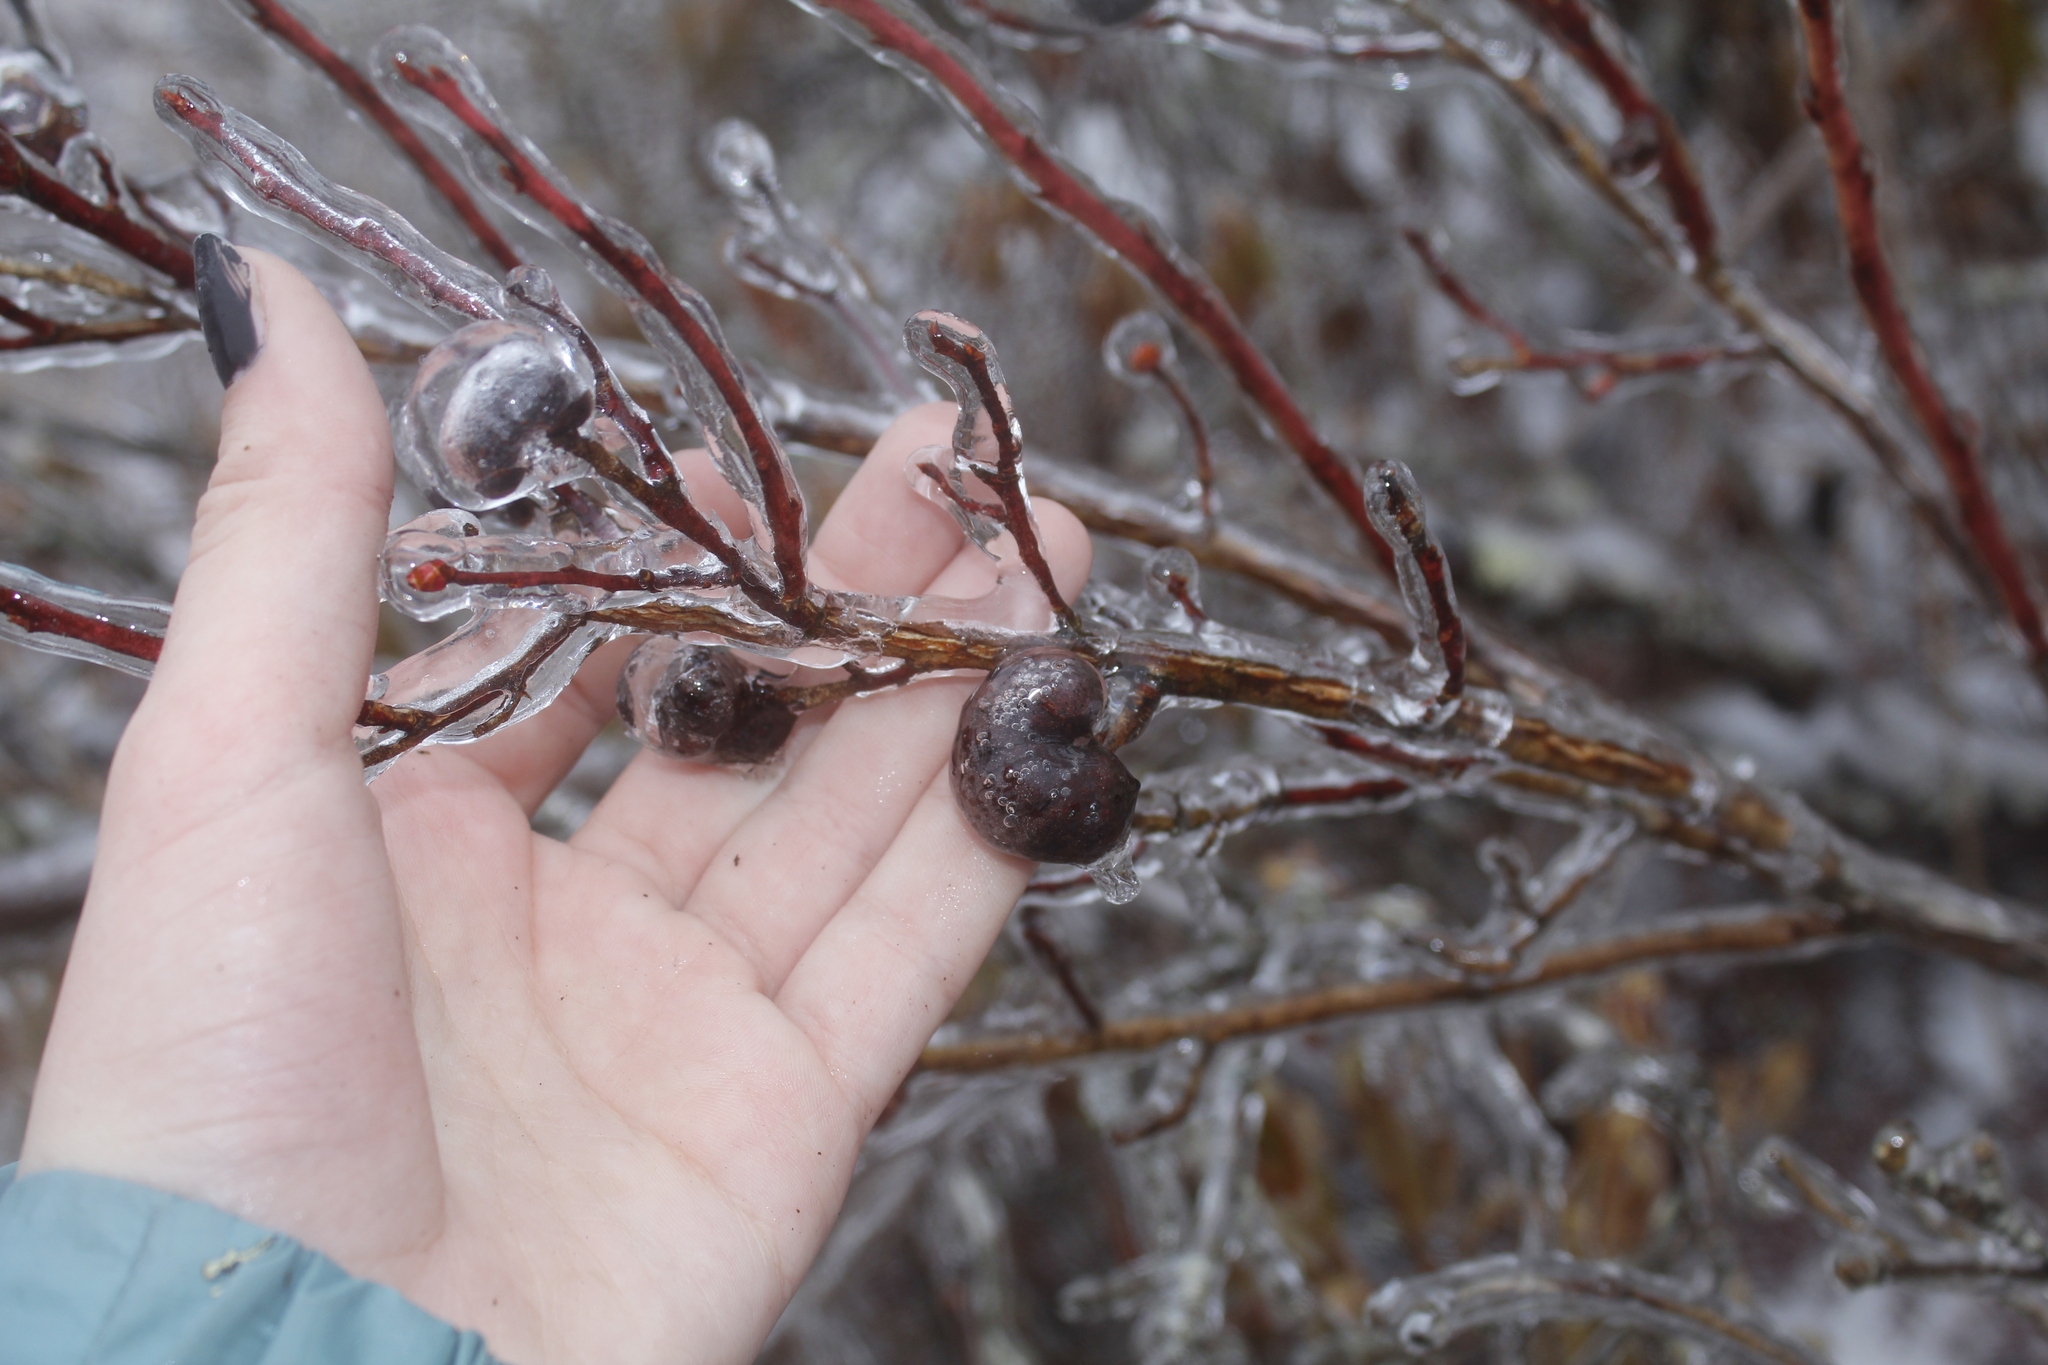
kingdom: Animalia
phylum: Arthropoda
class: Insecta
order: Hymenoptera
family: Pteromalidae
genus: Hemadas
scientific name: Hemadas nubilipennis
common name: Blueberry stem gall wasp
